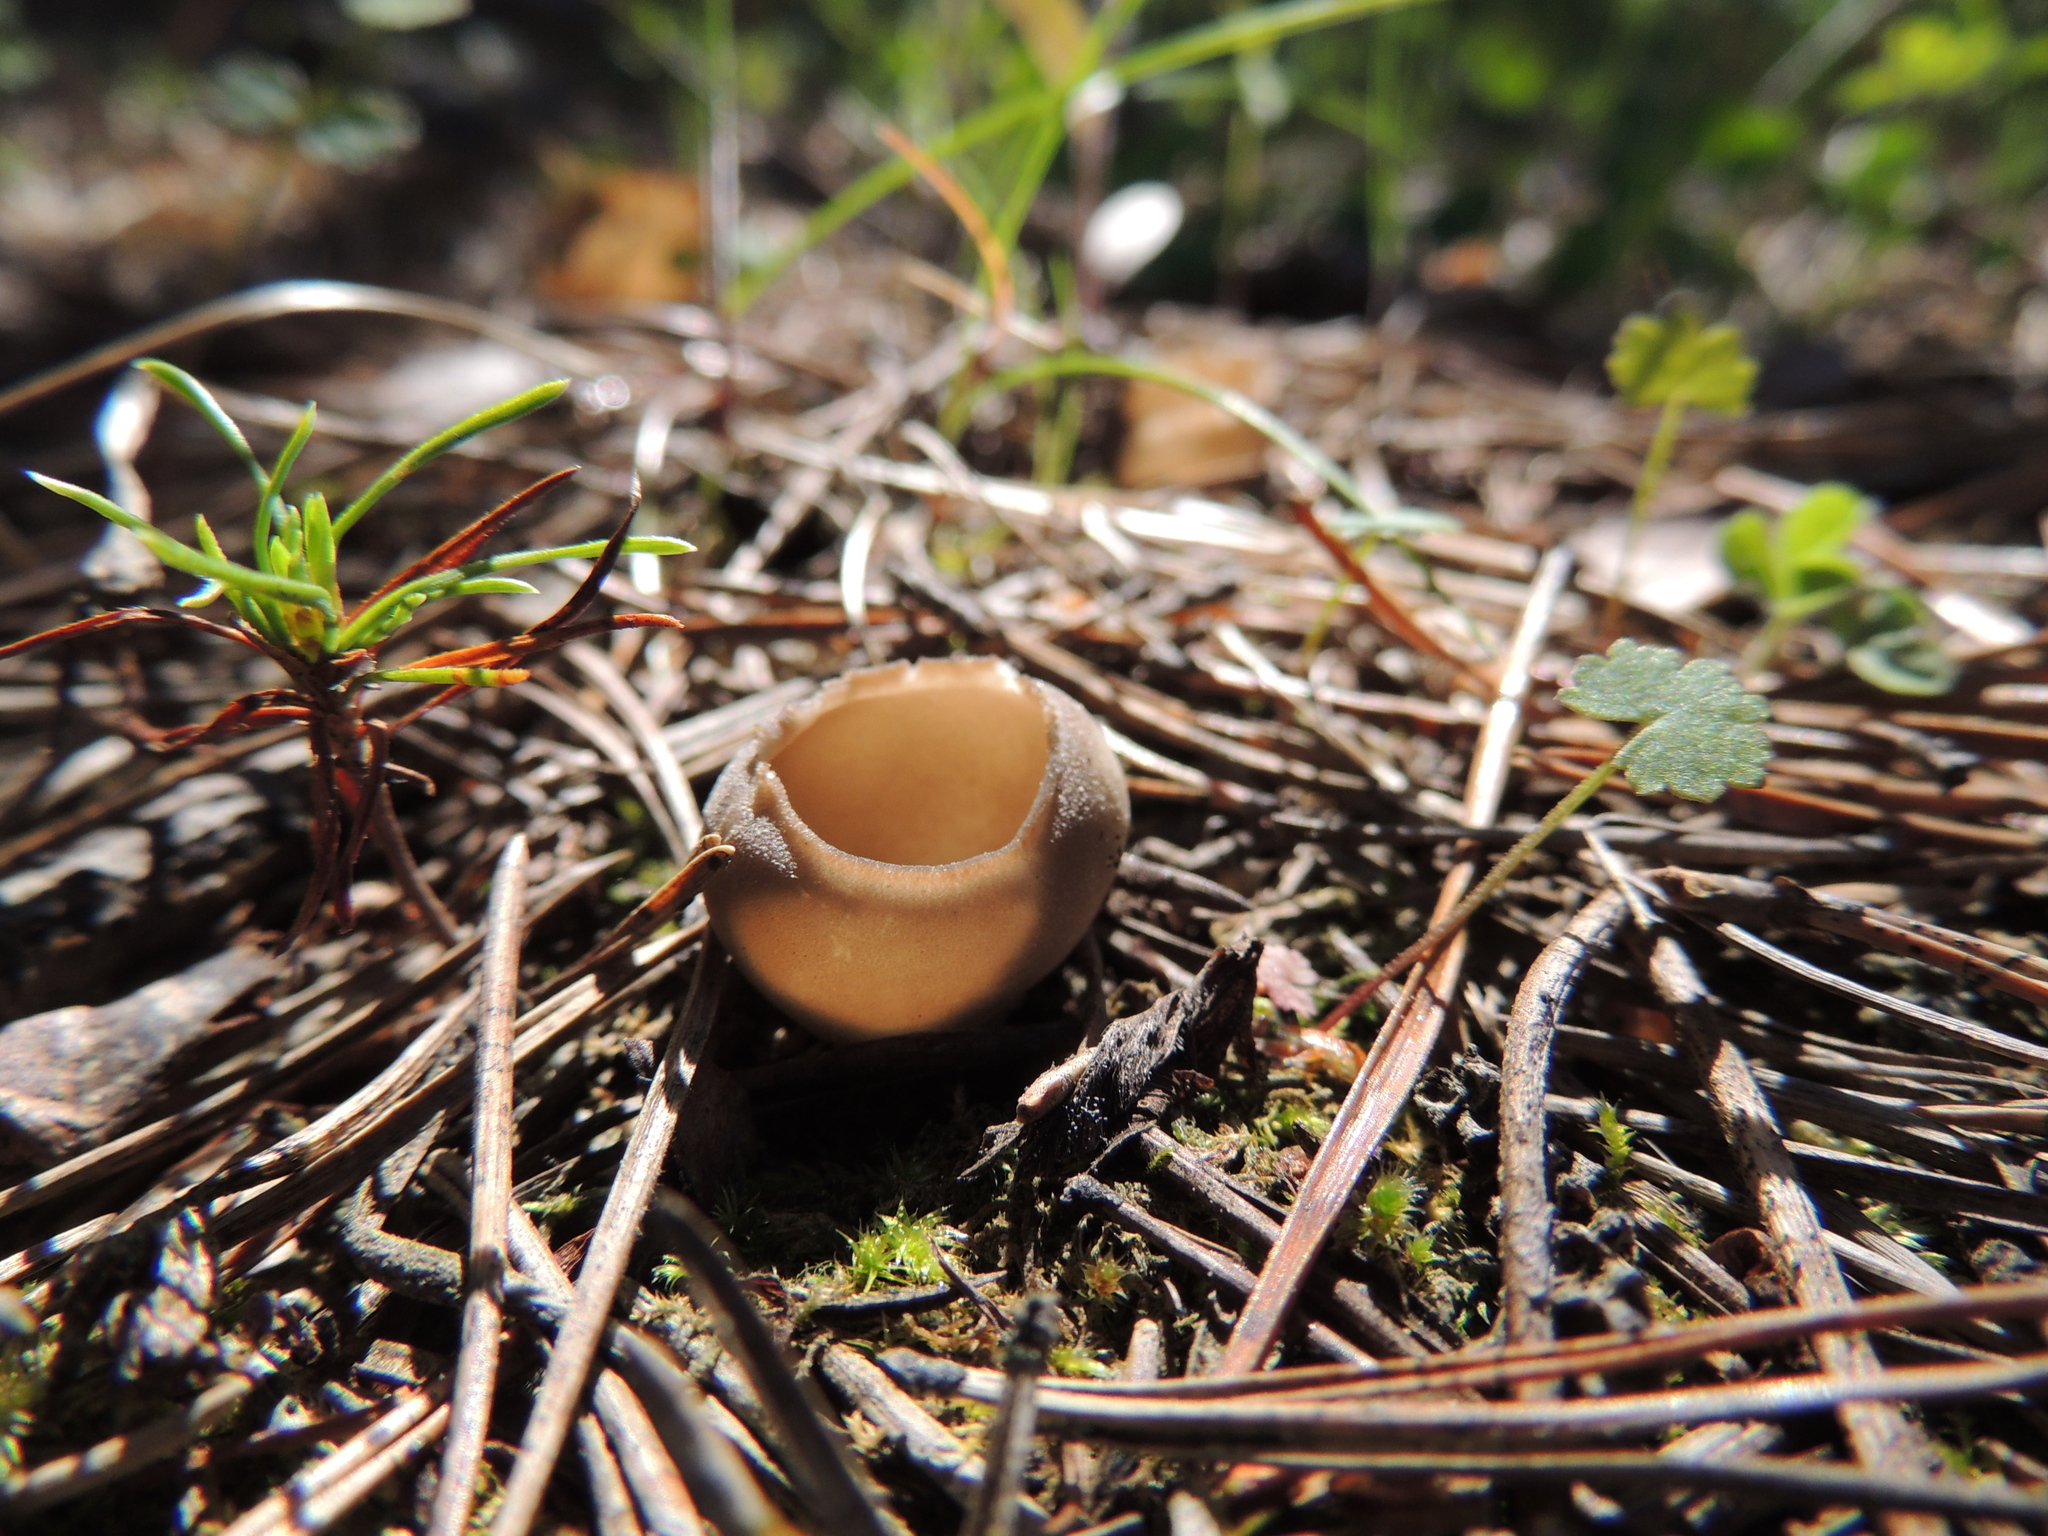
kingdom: Fungi
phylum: Ascomycota
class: Pezizomycetes
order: Pezizales
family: Helvellaceae
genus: Dissingia
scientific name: Dissingia leucomelaena
